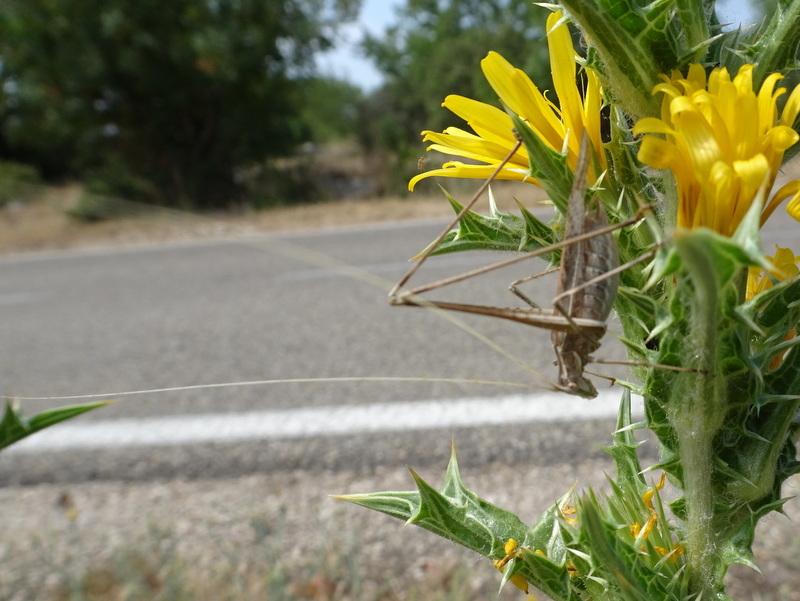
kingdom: Animalia
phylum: Arthropoda
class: Insecta
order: Orthoptera
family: Tettigoniidae
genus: Tylopsis
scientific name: Tylopsis lilifolia
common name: Lily bush-cricket
